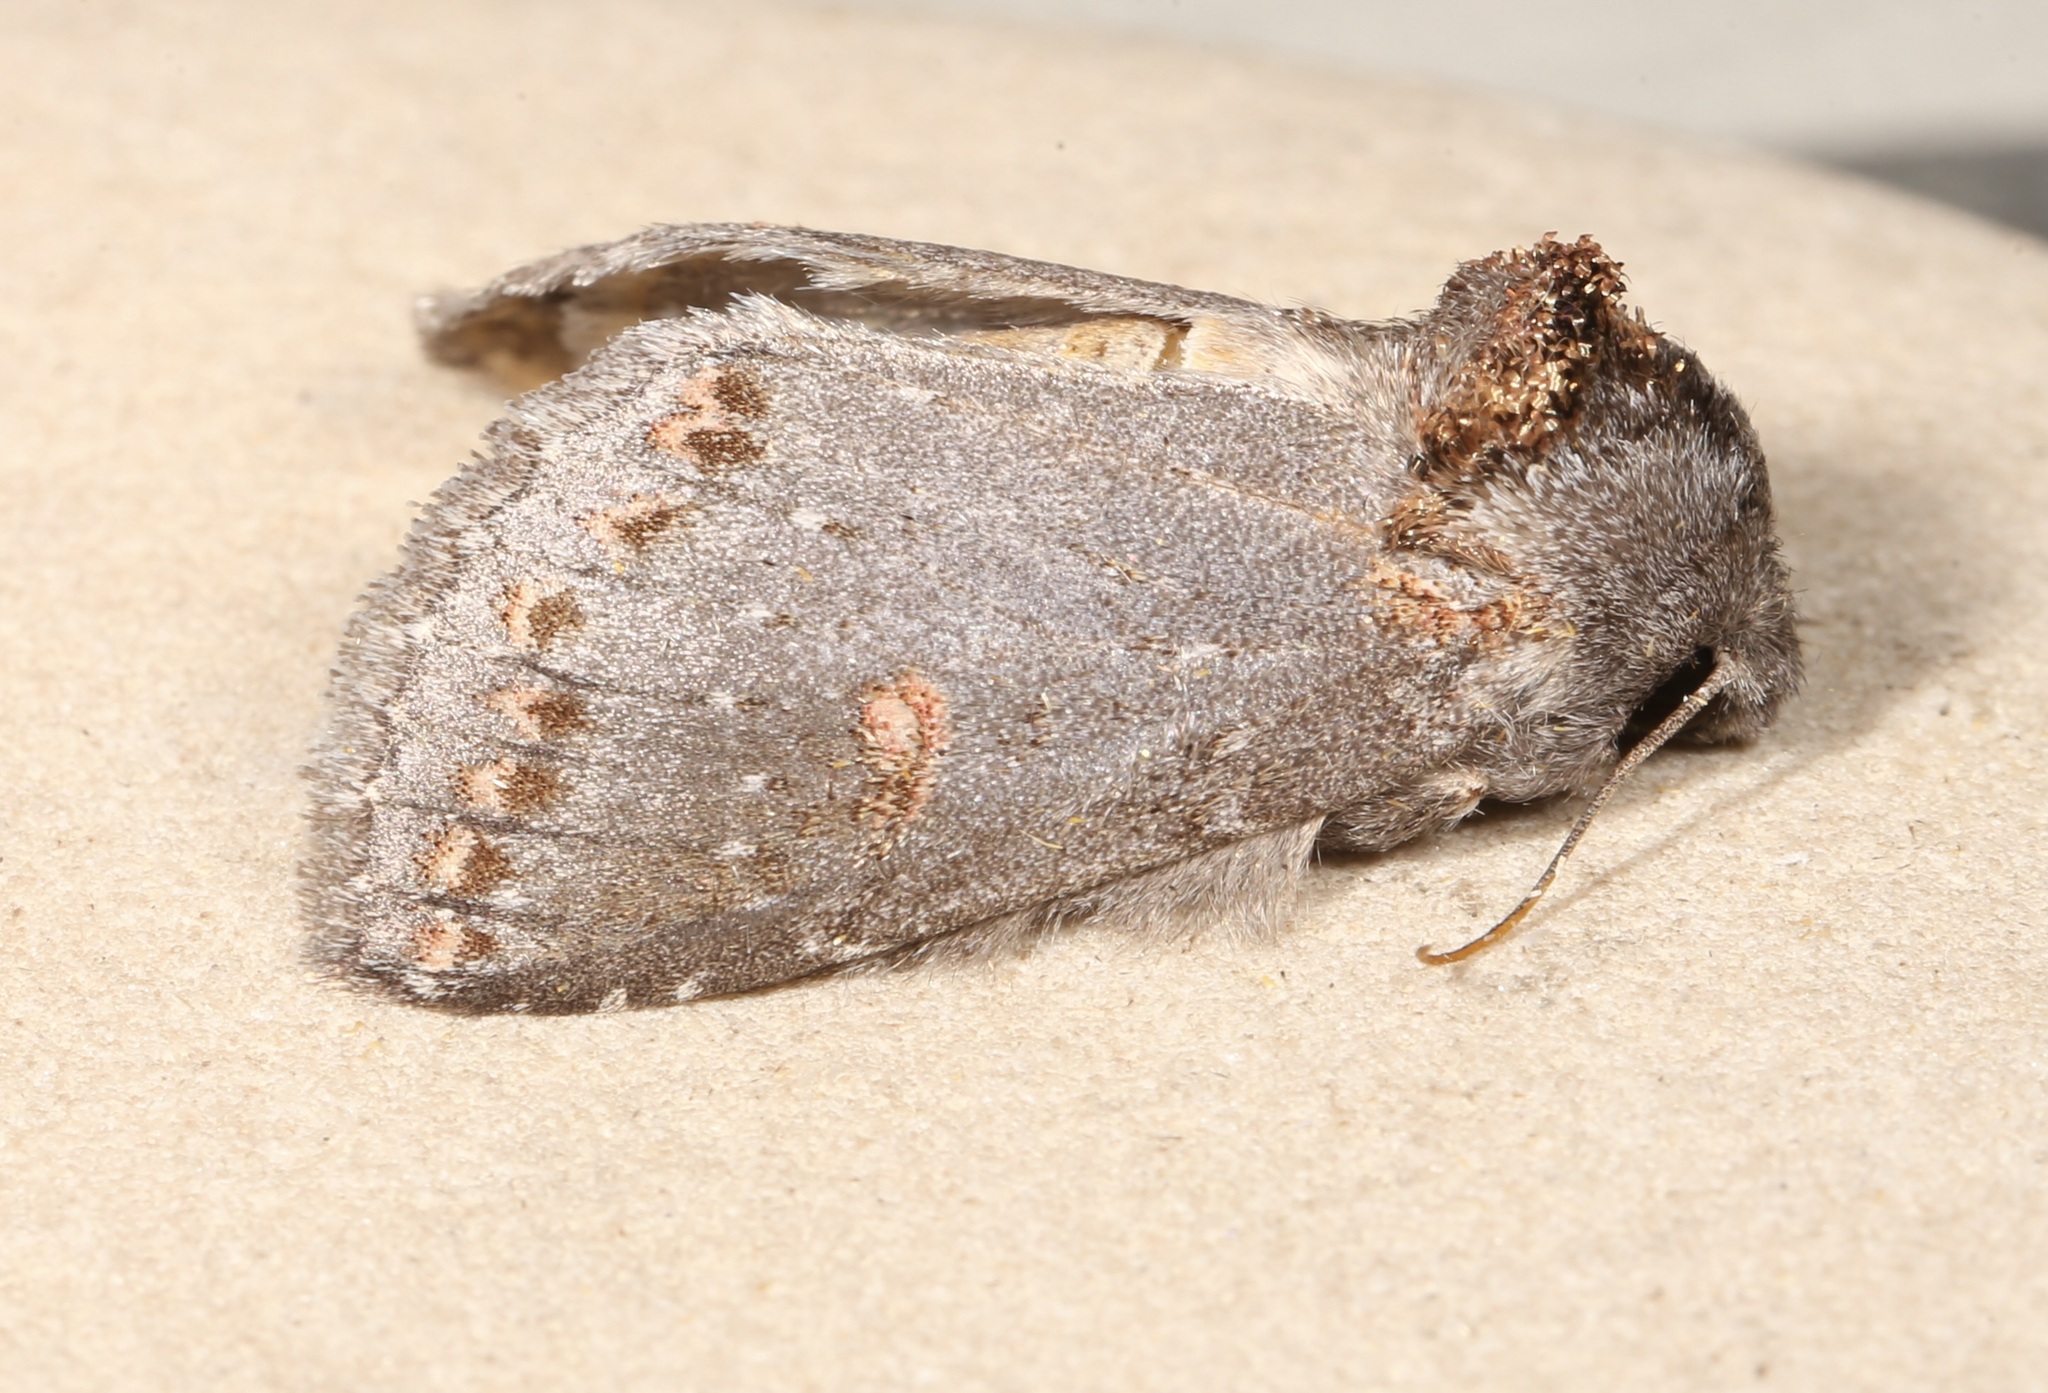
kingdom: Animalia
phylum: Arthropoda
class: Insecta
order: Lepidoptera
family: Notodontidae
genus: Theroa
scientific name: Theroa zethus
